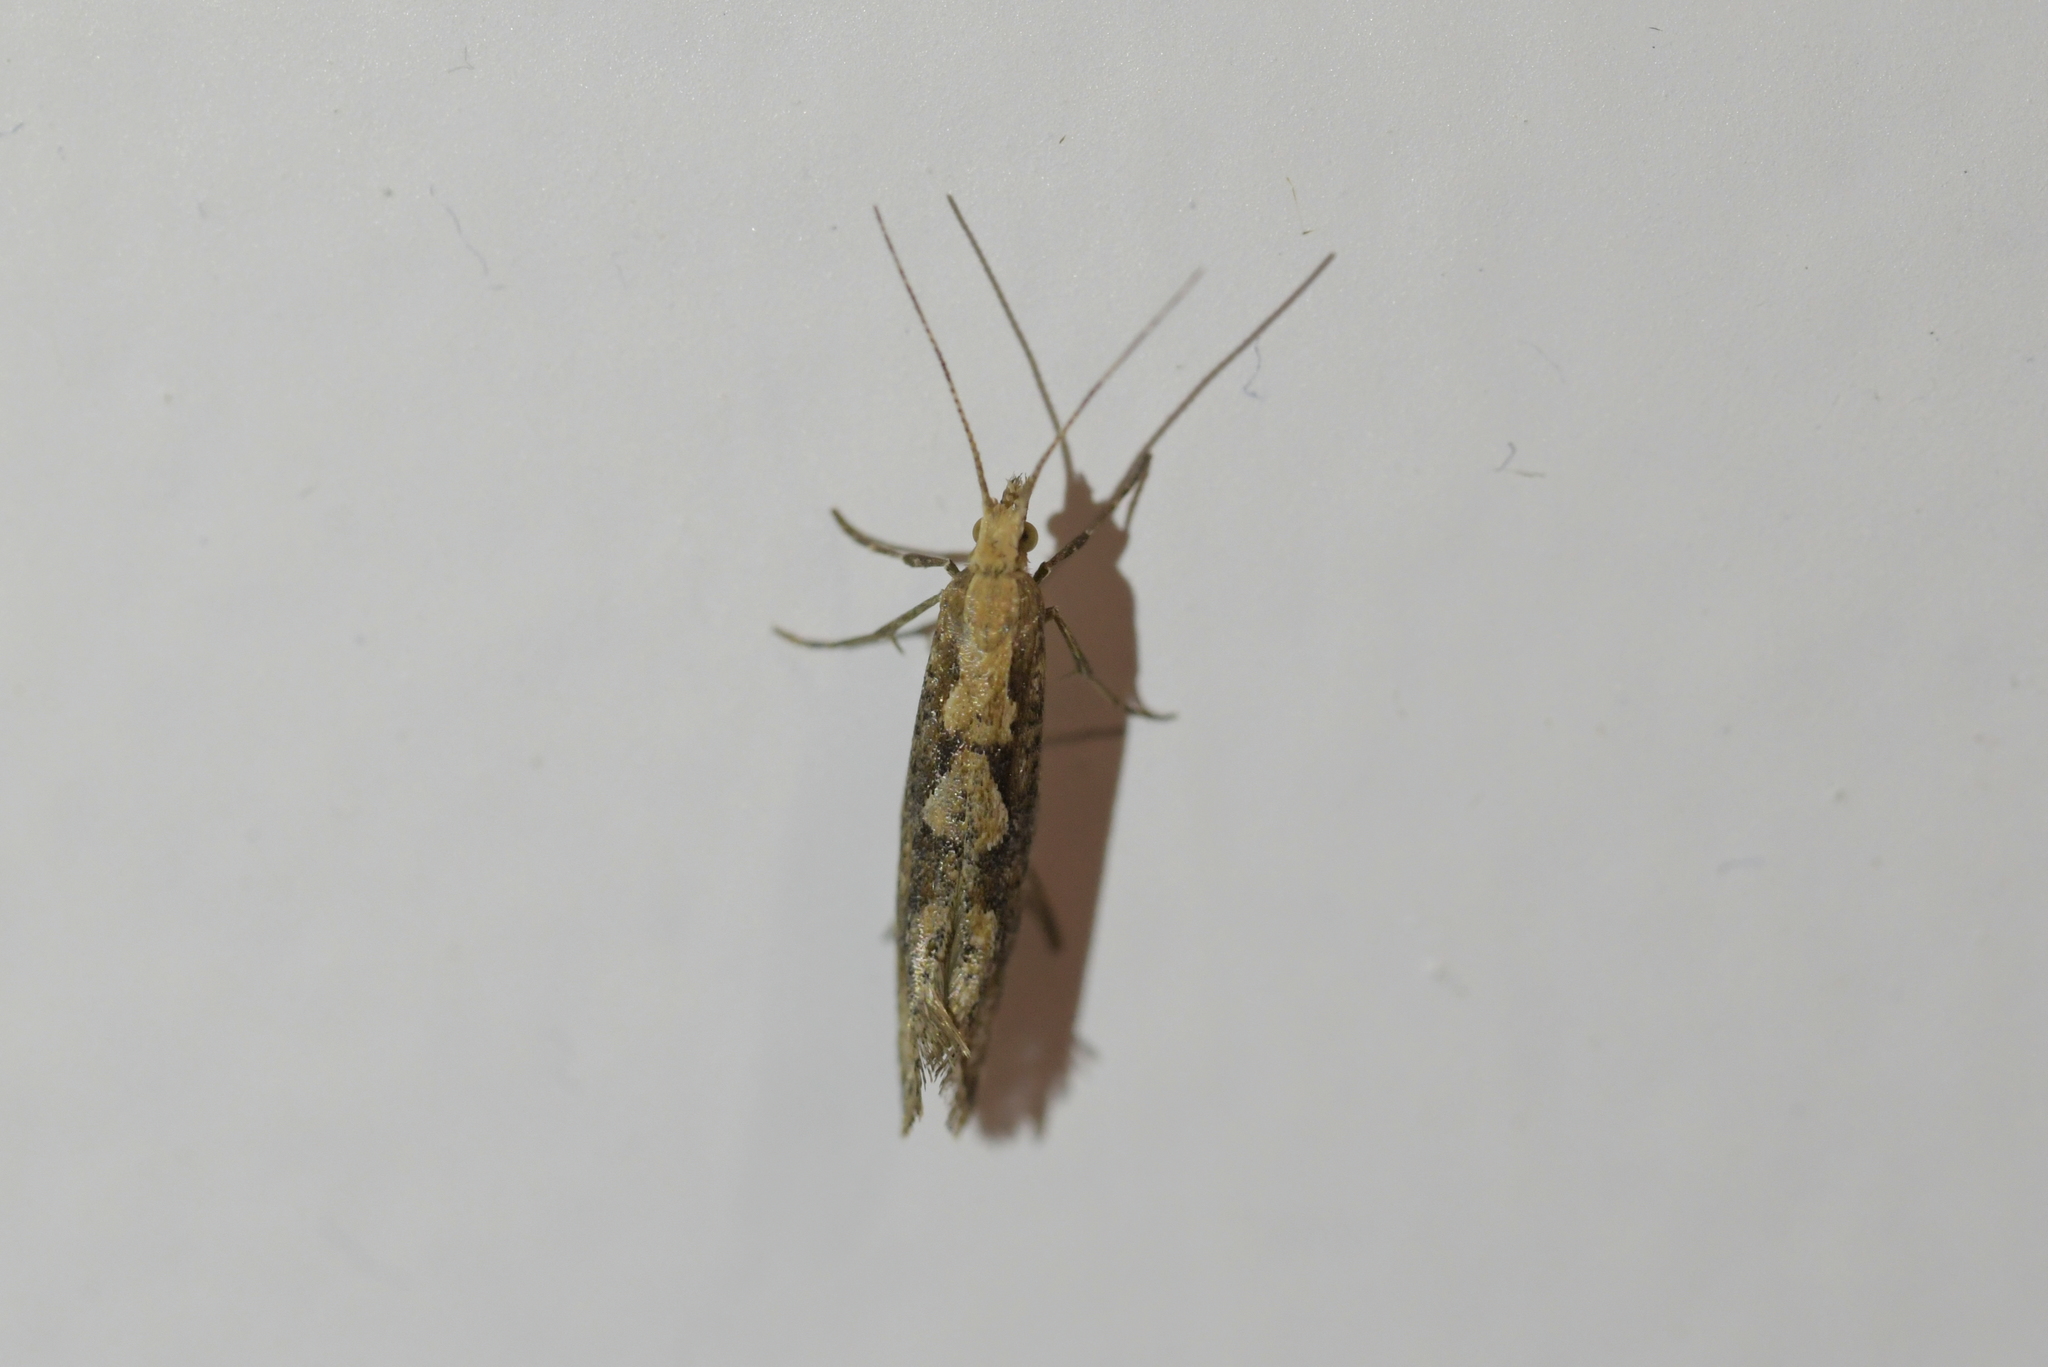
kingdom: Animalia
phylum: Arthropoda
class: Insecta
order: Lepidoptera
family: Plutellidae
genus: Plutella
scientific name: Plutella xylostella
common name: Diamond-back moth
